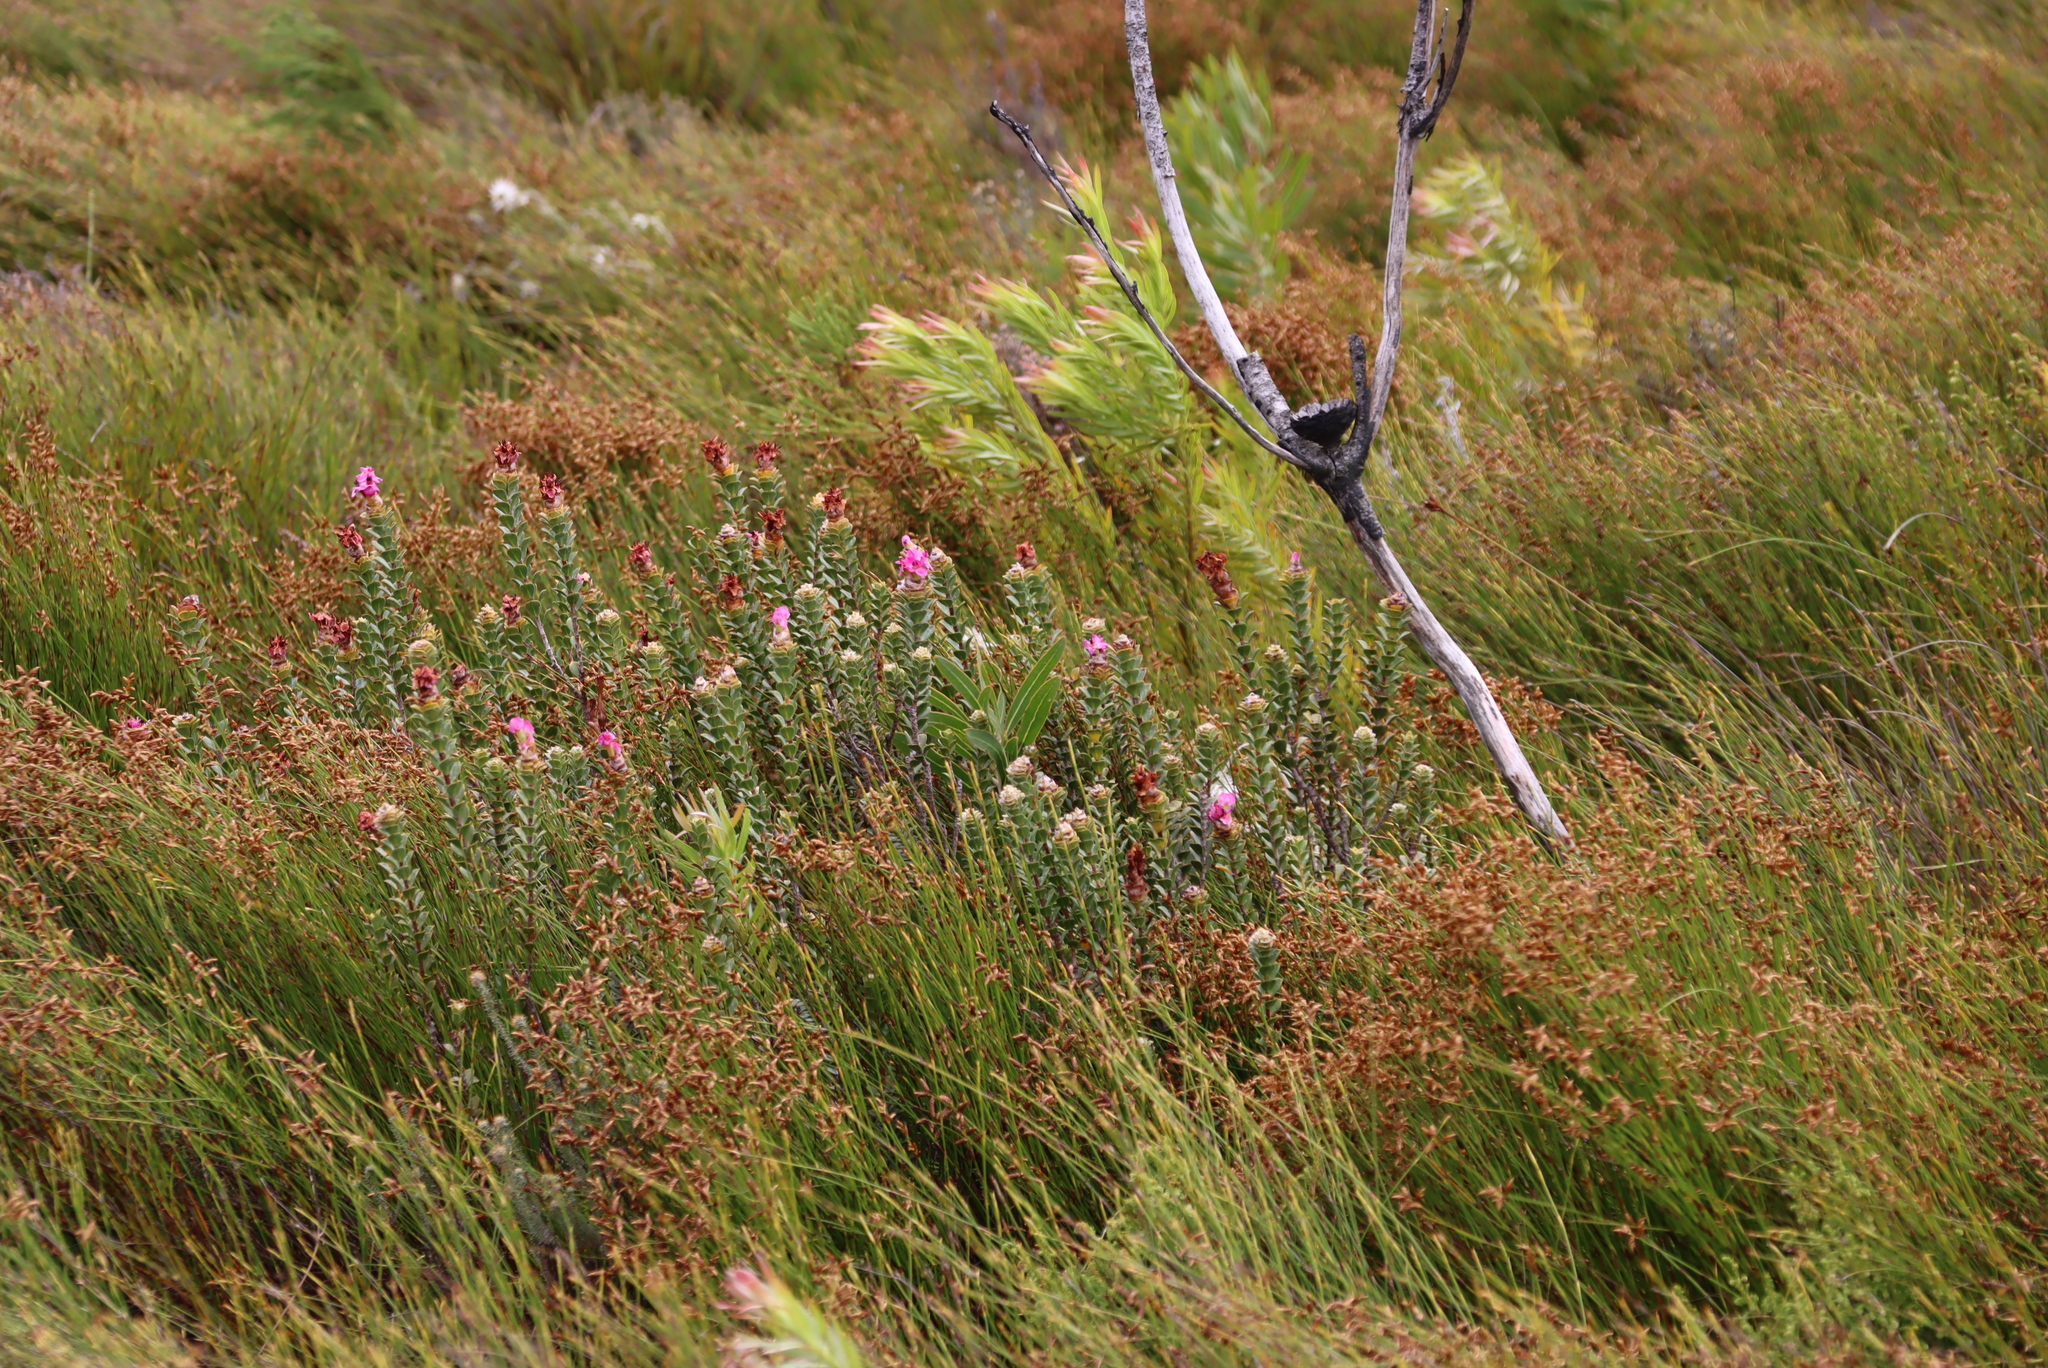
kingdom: Plantae
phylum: Tracheophyta
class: Magnoliopsida
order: Myrtales
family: Penaeaceae
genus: Saltera
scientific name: Saltera sarcocolla
